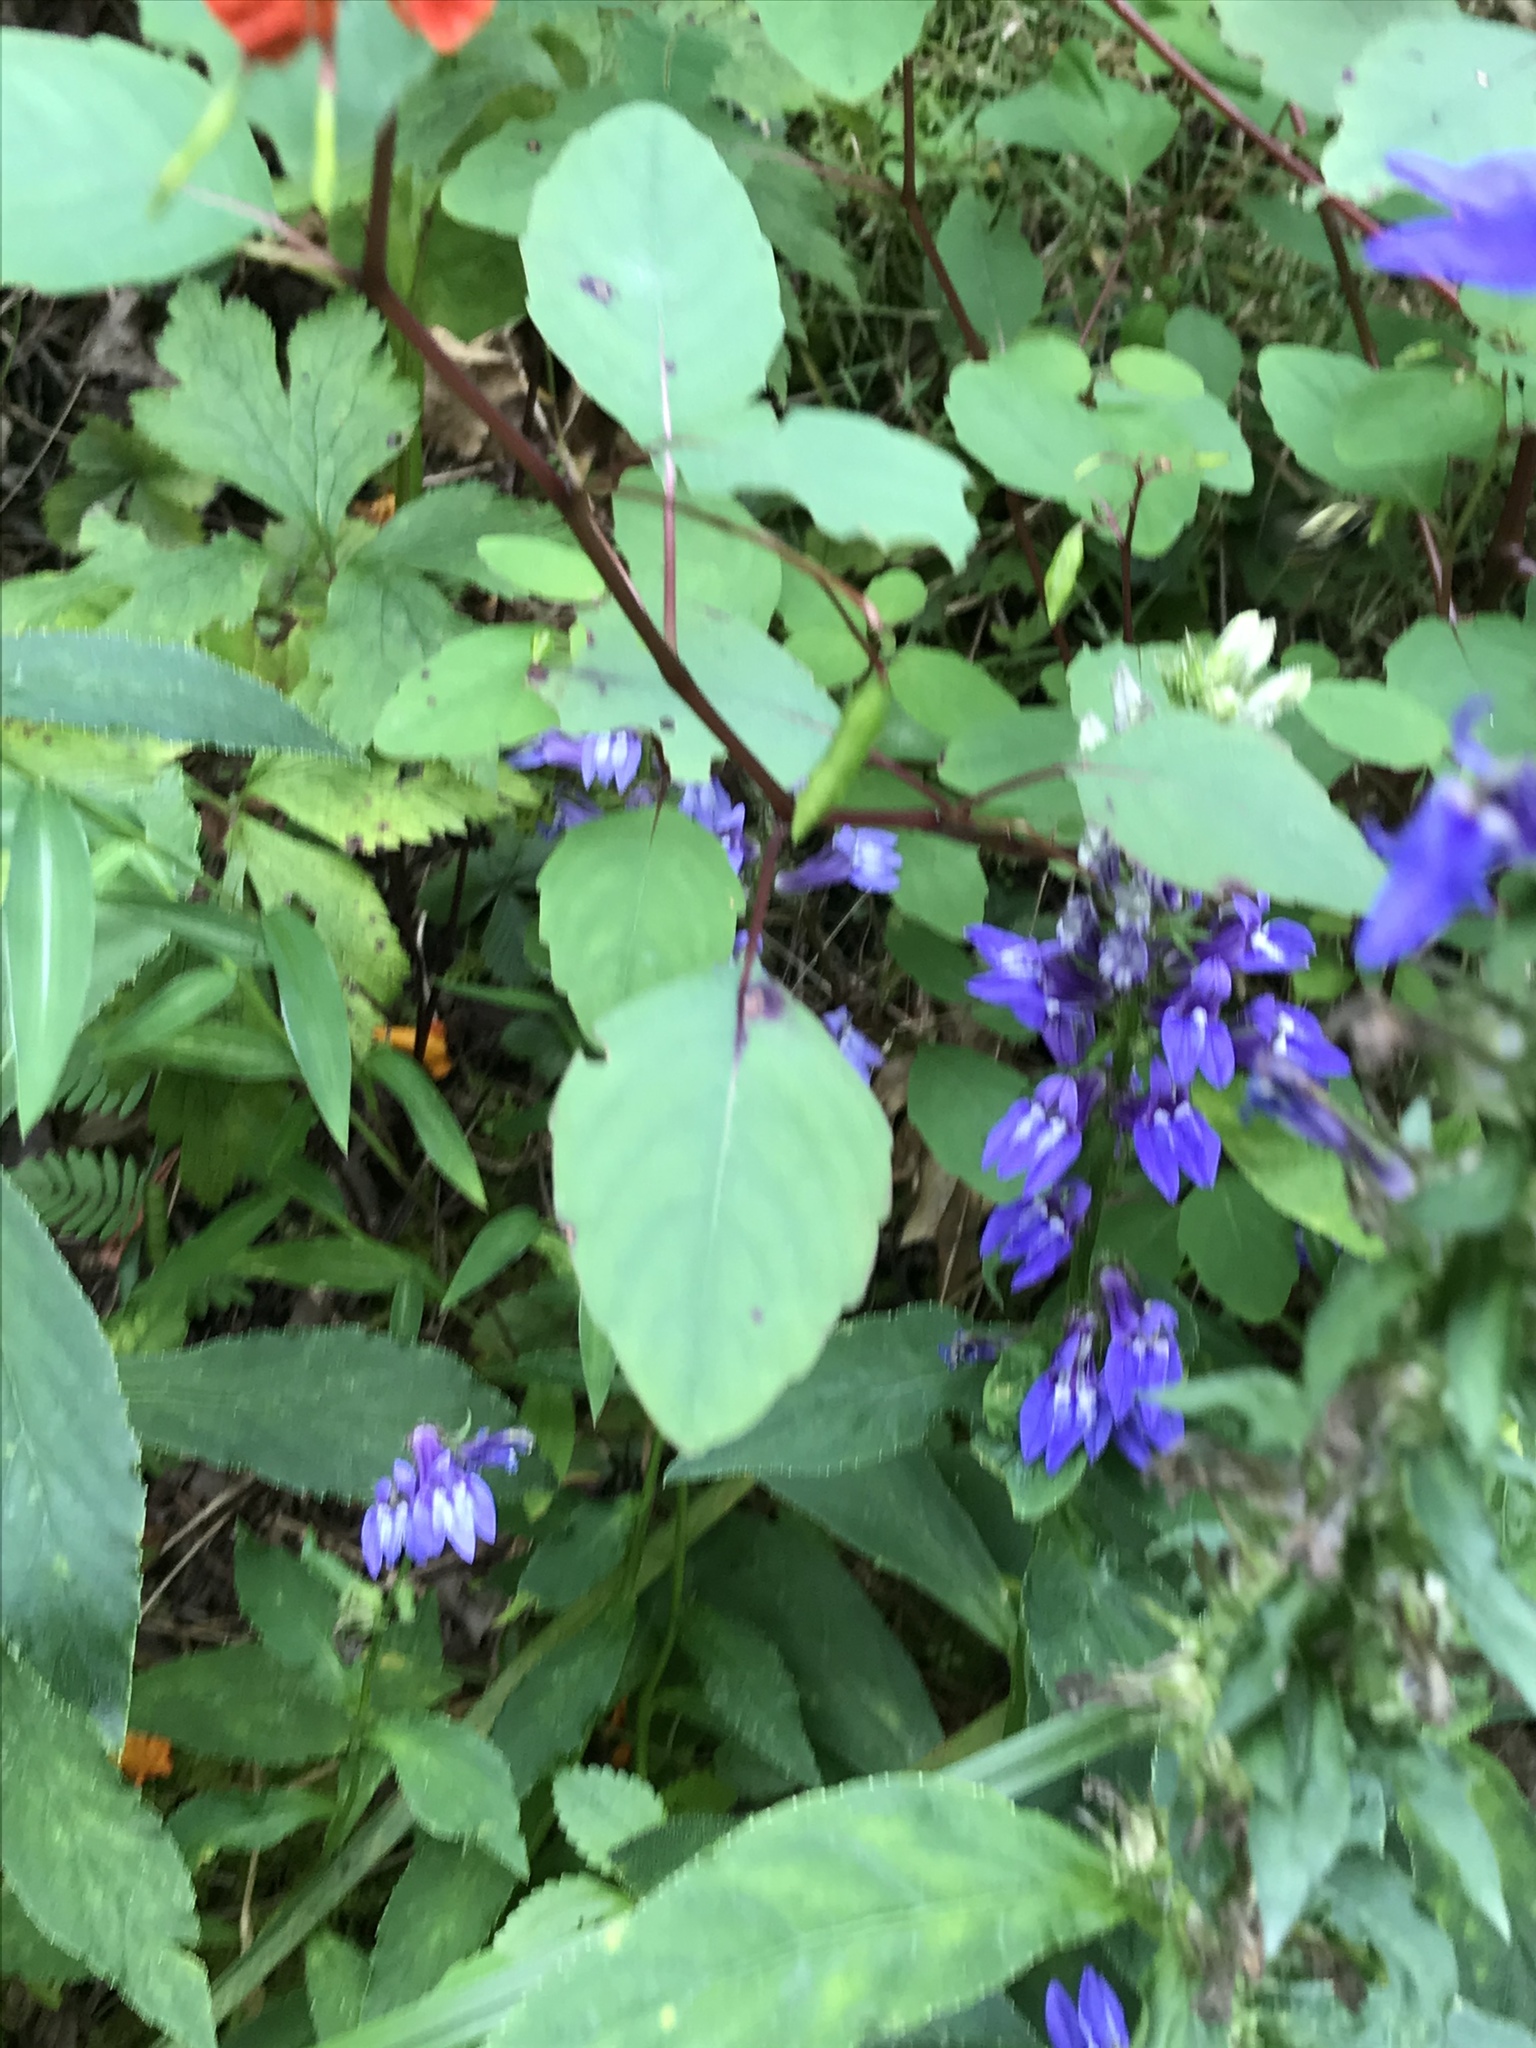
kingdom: Plantae
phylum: Tracheophyta
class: Magnoliopsida
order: Asterales
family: Campanulaceae
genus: Lobelia
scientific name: Lobelia siphilitica
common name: Great lobelia
